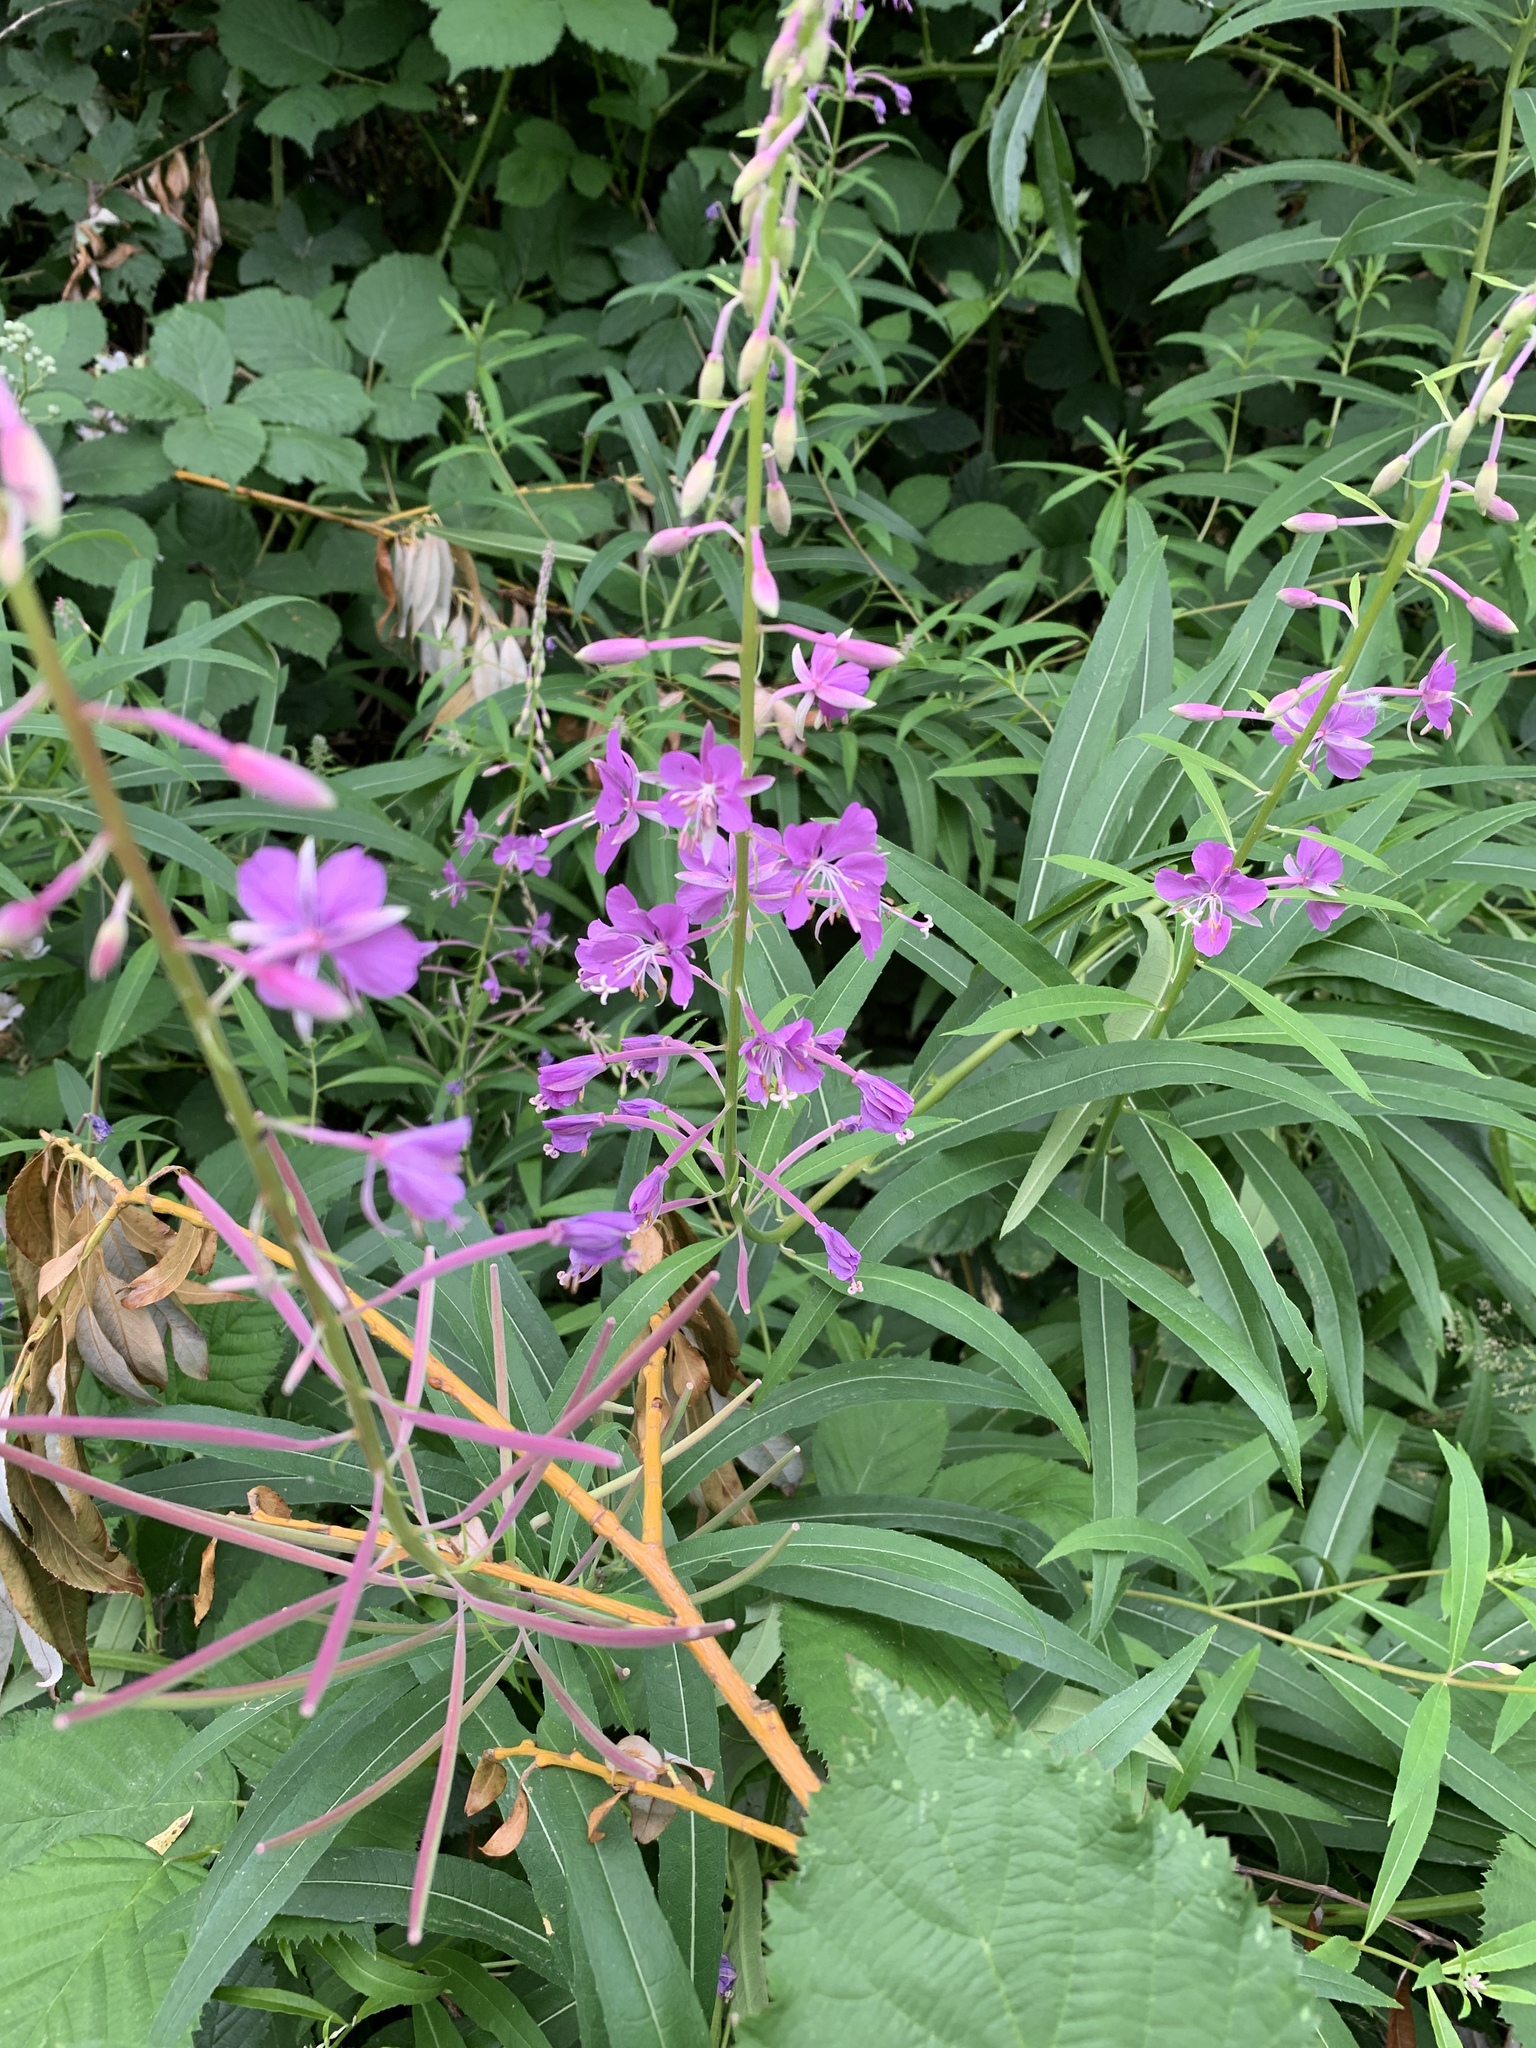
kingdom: Plantae
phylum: Tracheophyta
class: Magnoliopsida
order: Myrtales
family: Onagraceae
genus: Chamaenerion
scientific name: Chamaenerion angustifolium
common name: Fireweed
